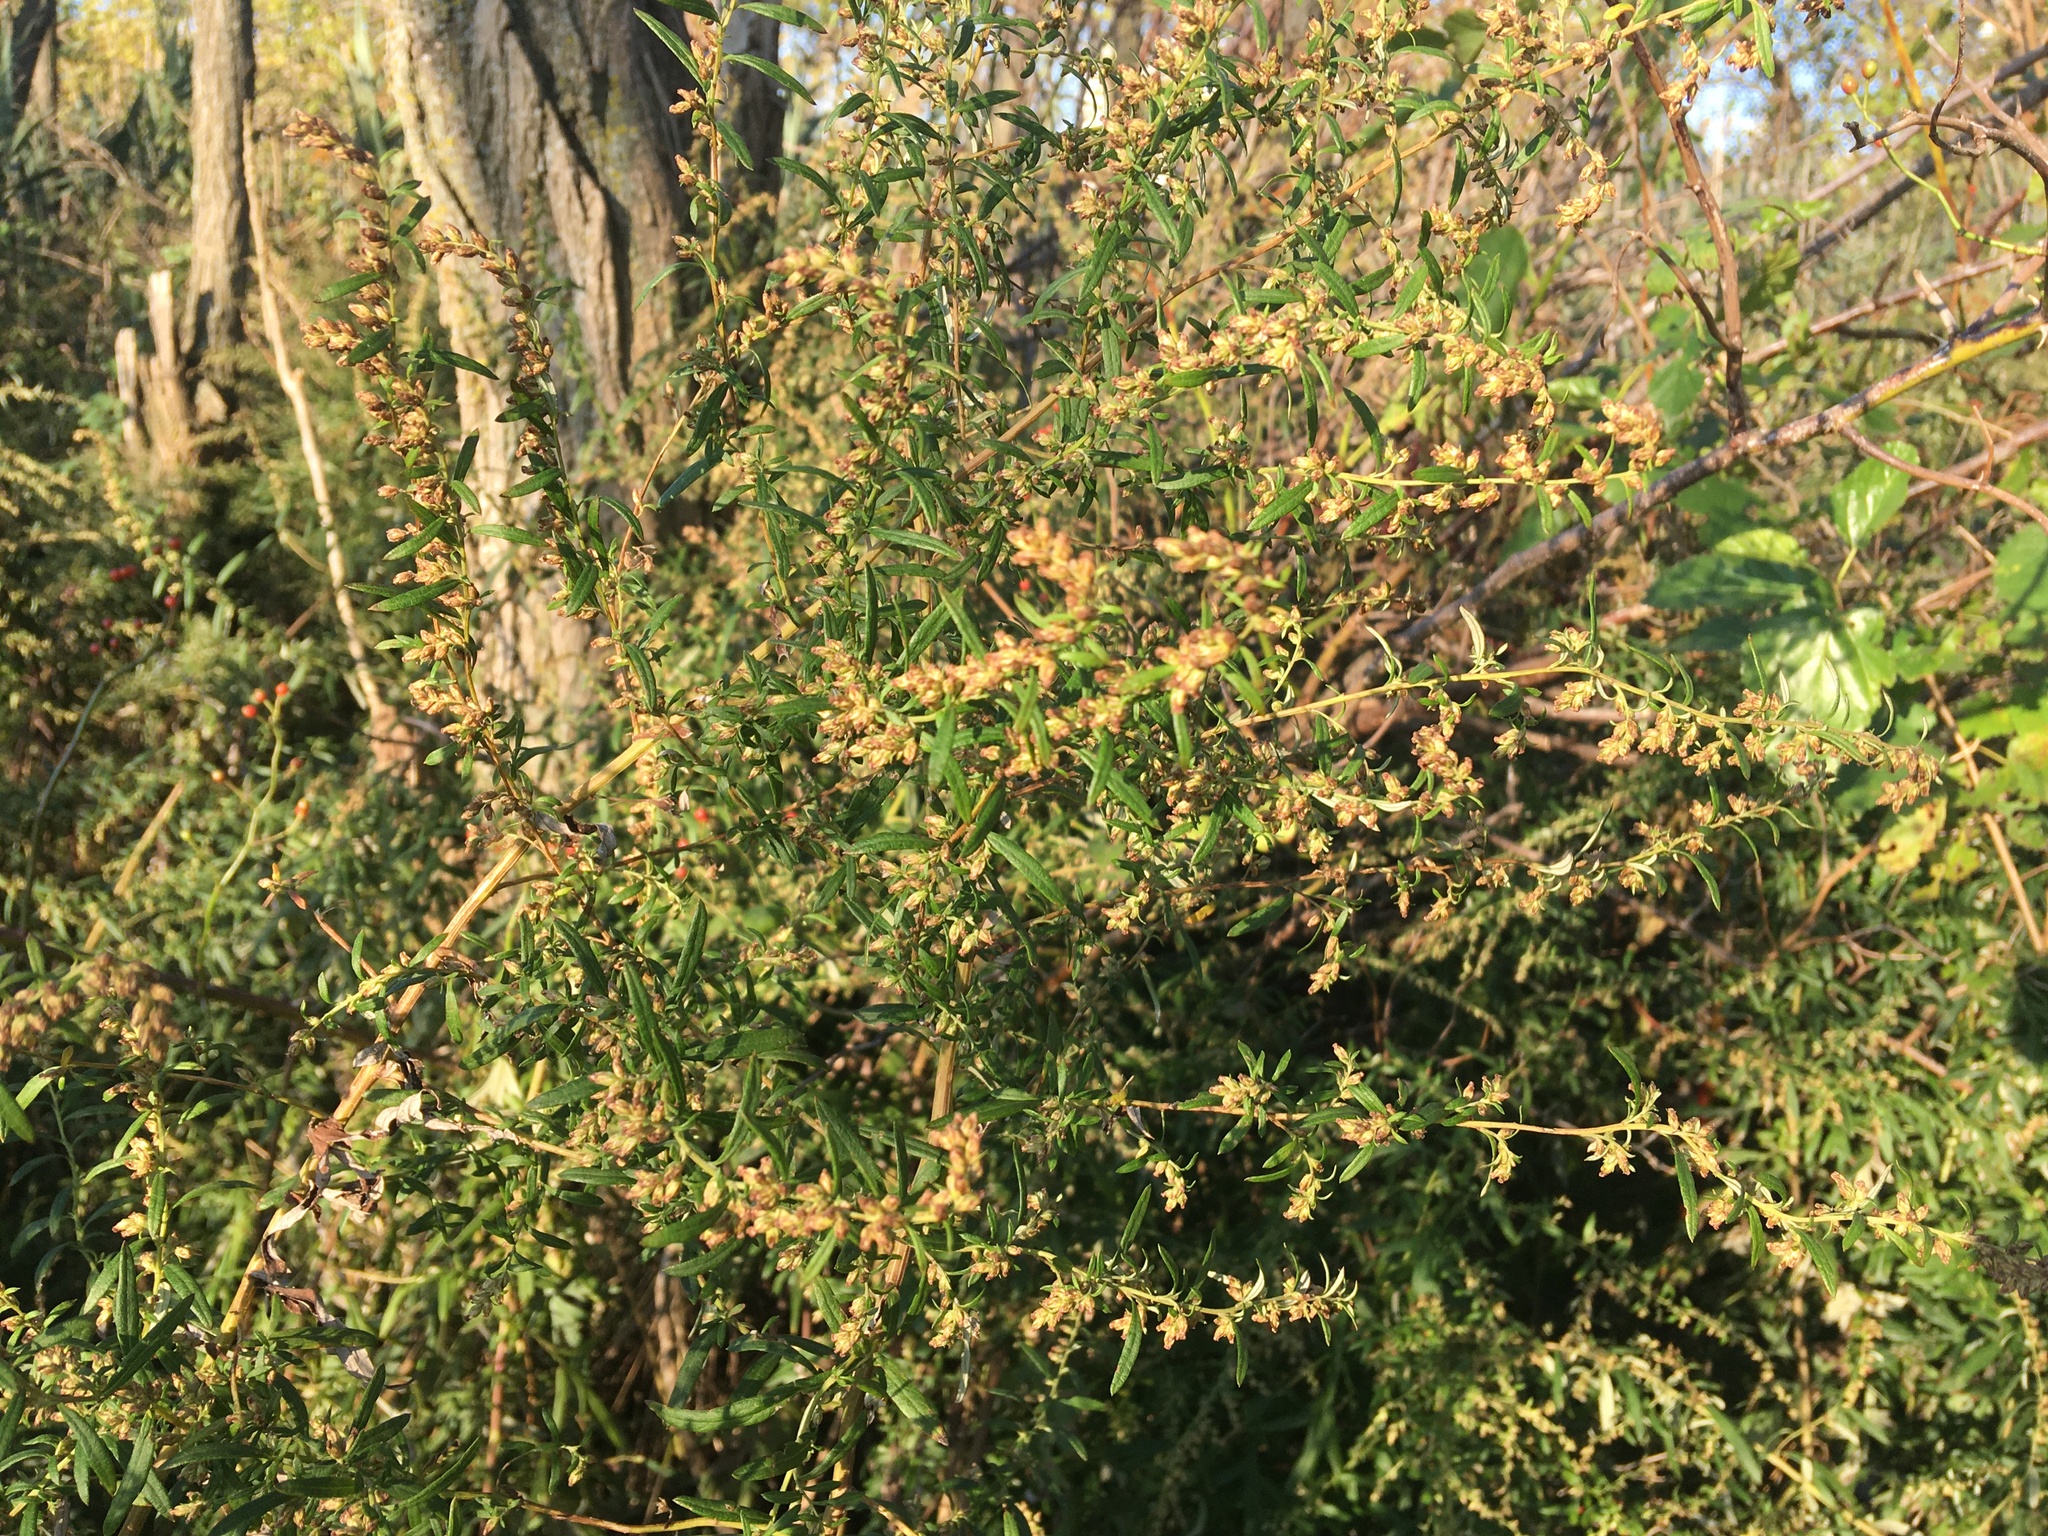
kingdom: Plantae
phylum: Tracheophyta
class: Magnoliopsida
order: Asterales
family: Asteraceae
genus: Artemisia
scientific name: Artemisia vulgaris
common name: Mugwort
